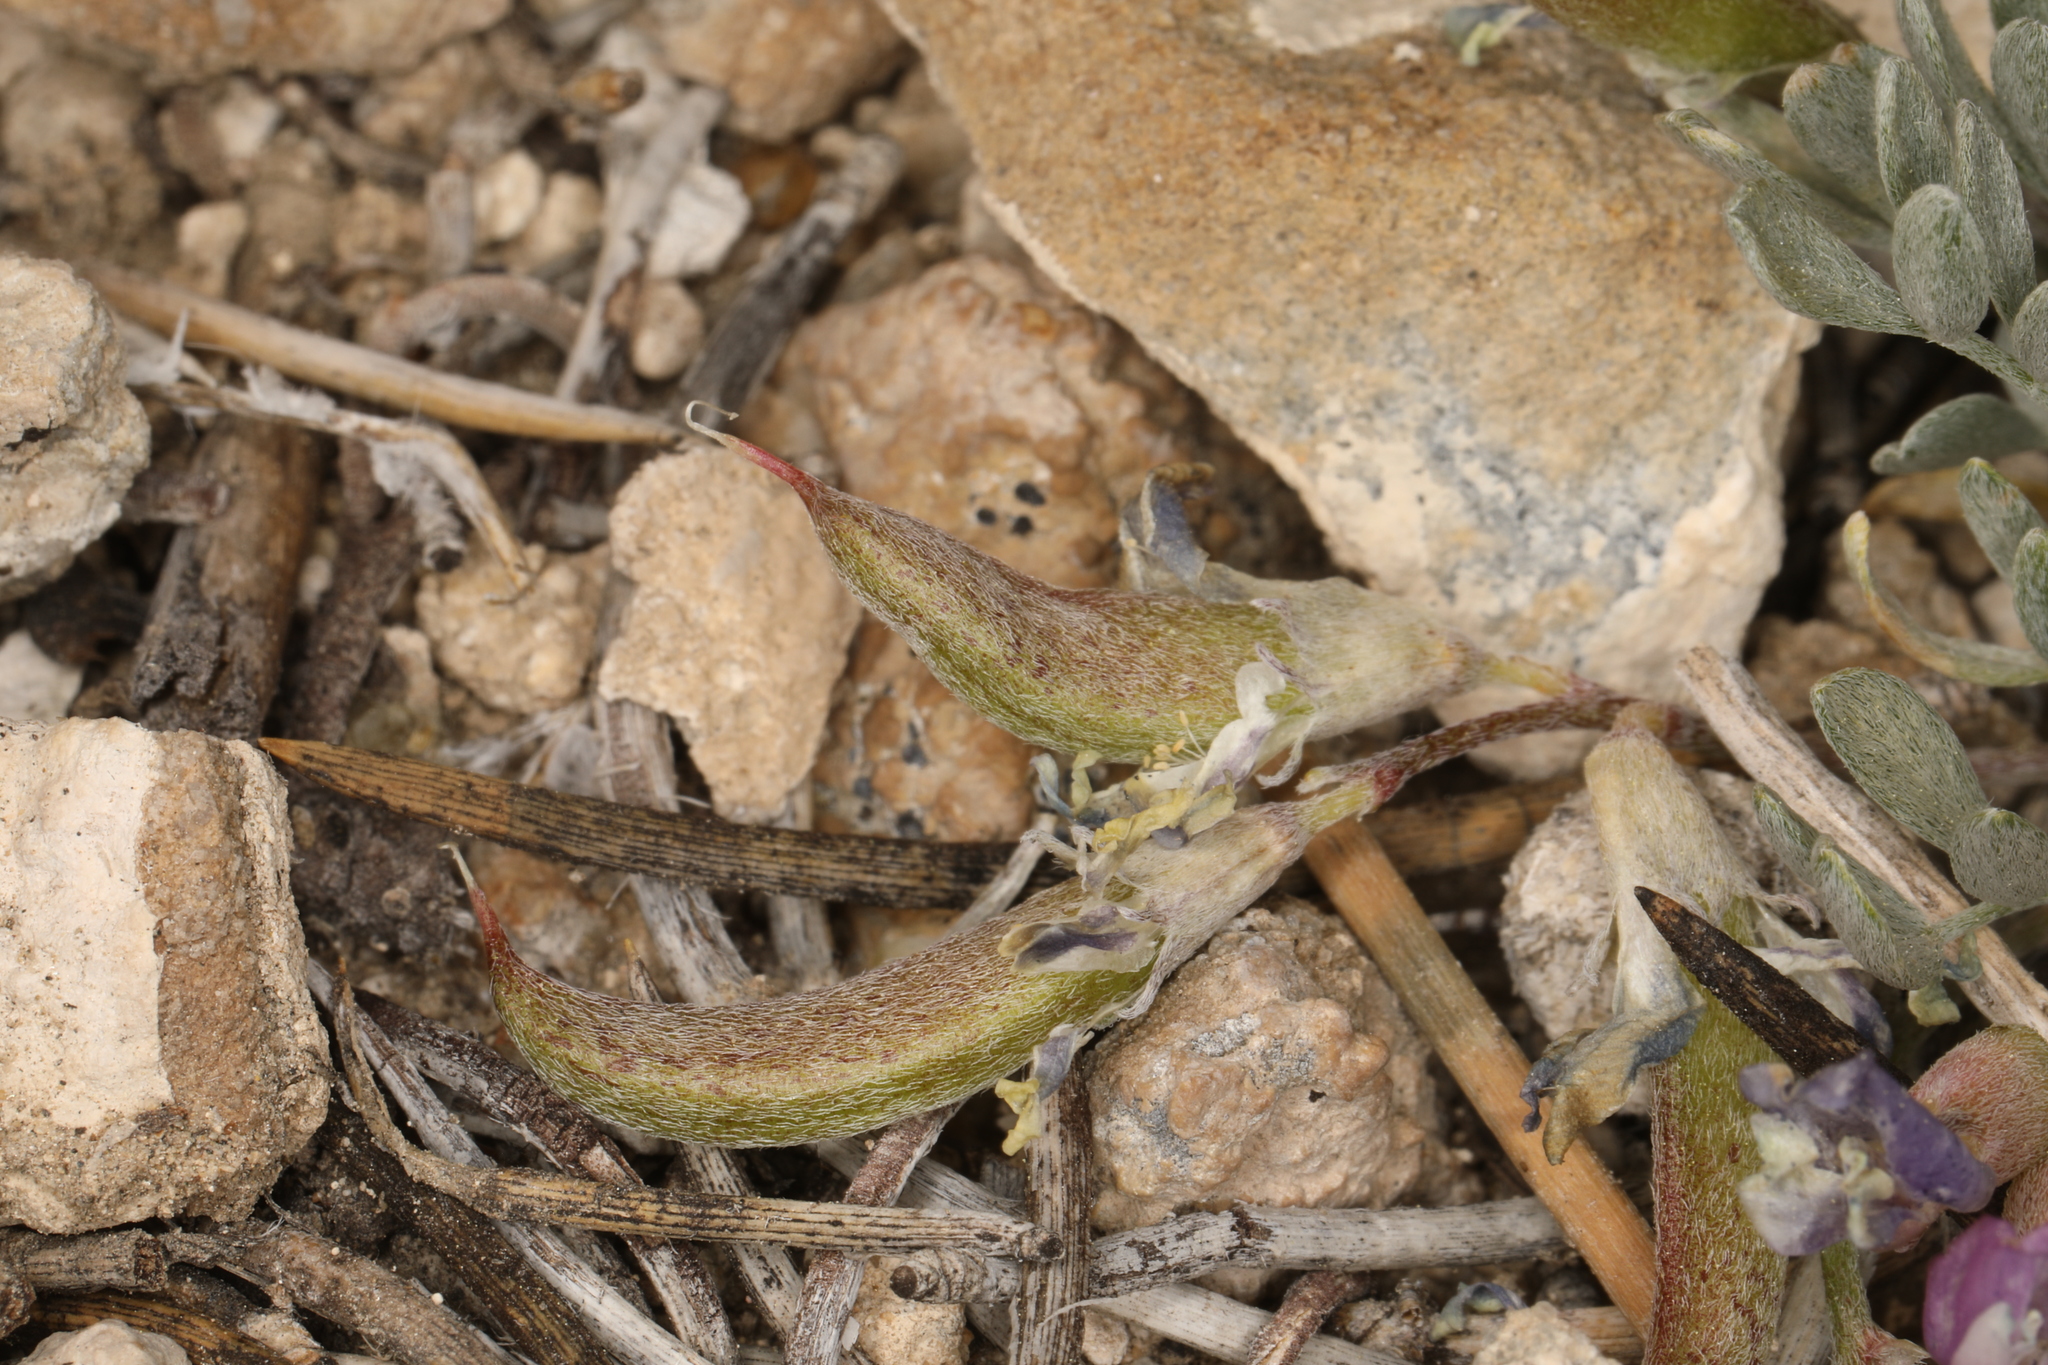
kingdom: Plantae
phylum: Tracheophyta
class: Magnoliopsida
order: Fabales
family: Fabaceae
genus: Astragalus
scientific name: Astragalus calycosus
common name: King's milkvetch
